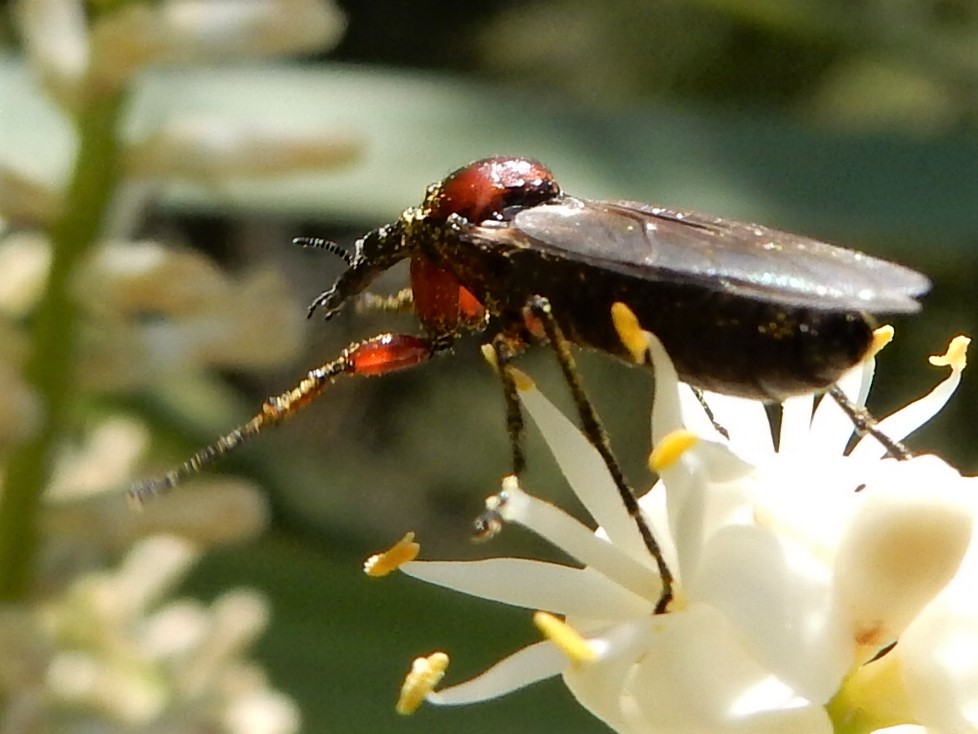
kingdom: Animalia
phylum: Arthropoda
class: Insecta
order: Diptera
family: Bibionidae
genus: Dilophus
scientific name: Dilophus nigrostigma
